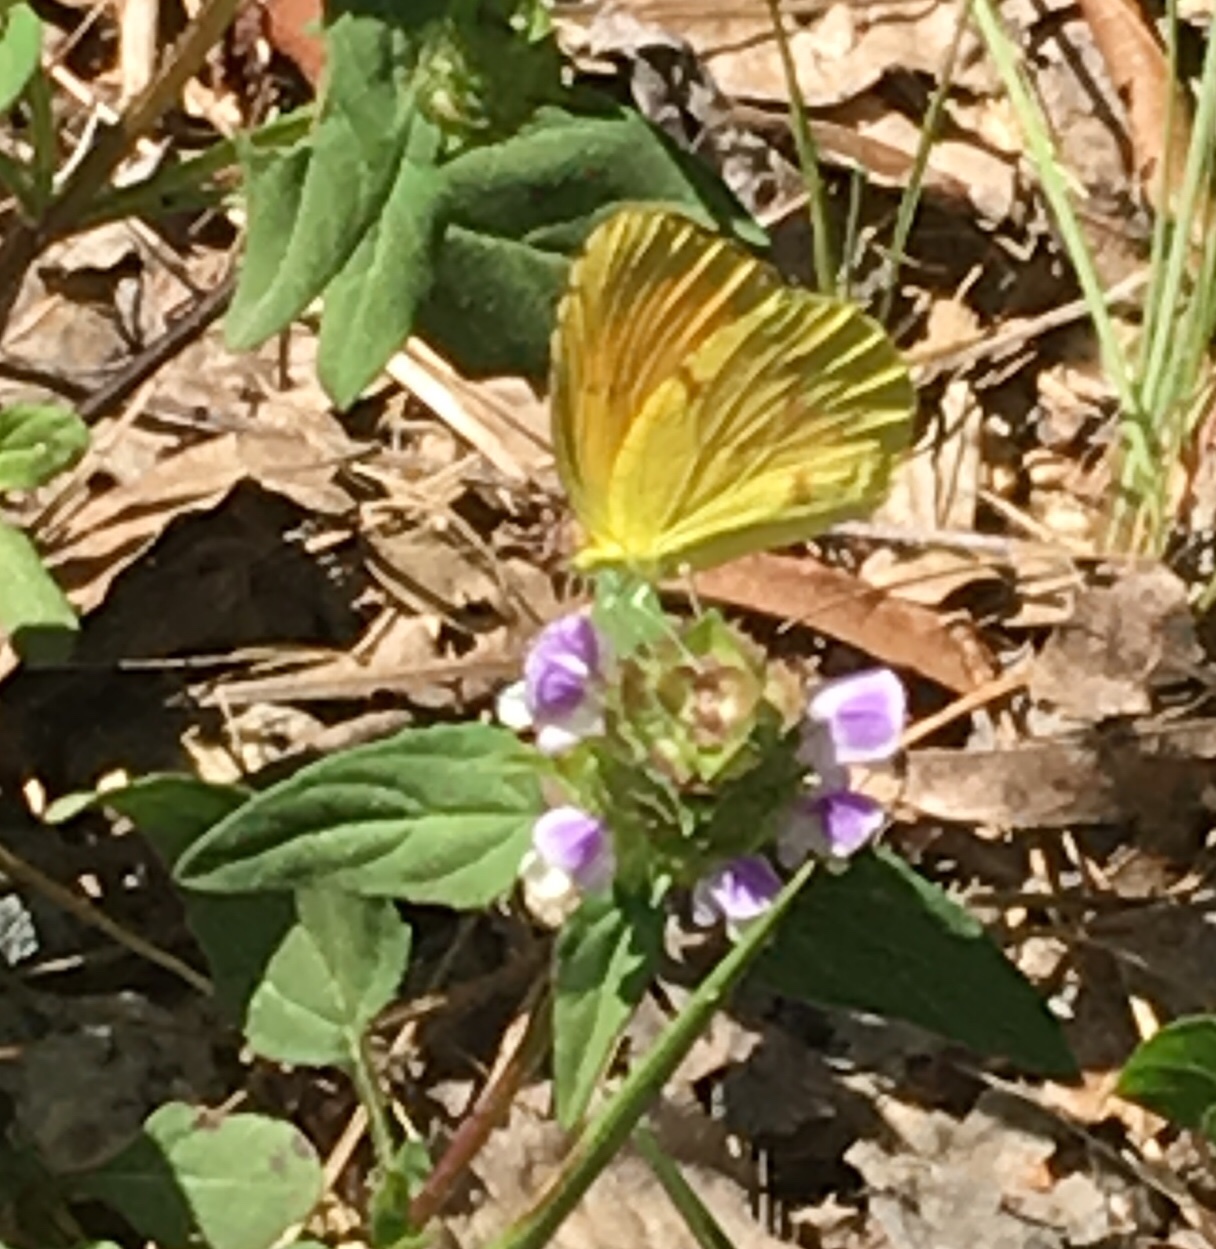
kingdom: Animalia
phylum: Arthropoda
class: Insecta
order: Lepidoptera
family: Pieridae
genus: Abaeis
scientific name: Abaeis nicippe
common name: Sleepy orange
